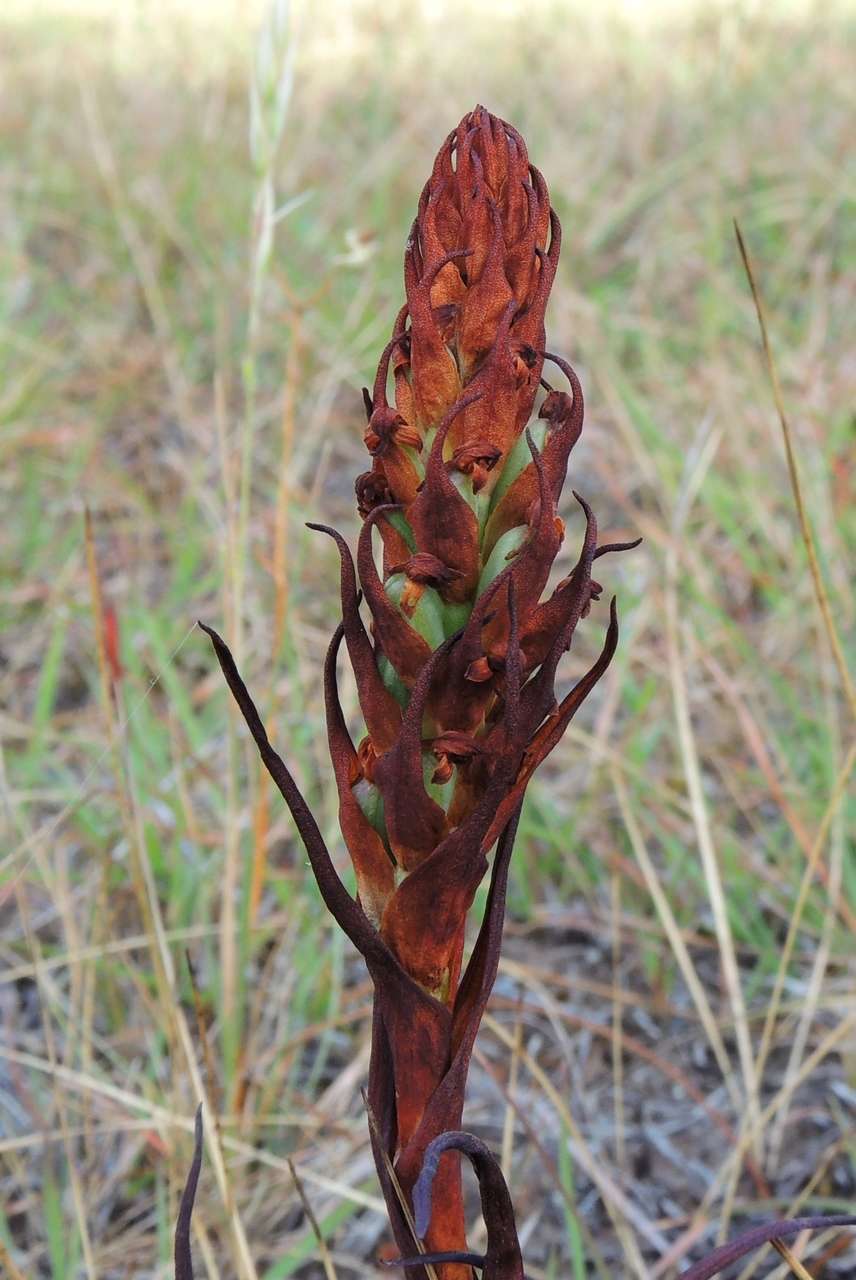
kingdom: Plantae
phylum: Tracheophyta
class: Liliopsida
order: Asparagales
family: Orchidaceae
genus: Disa
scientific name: Disa bracteata
